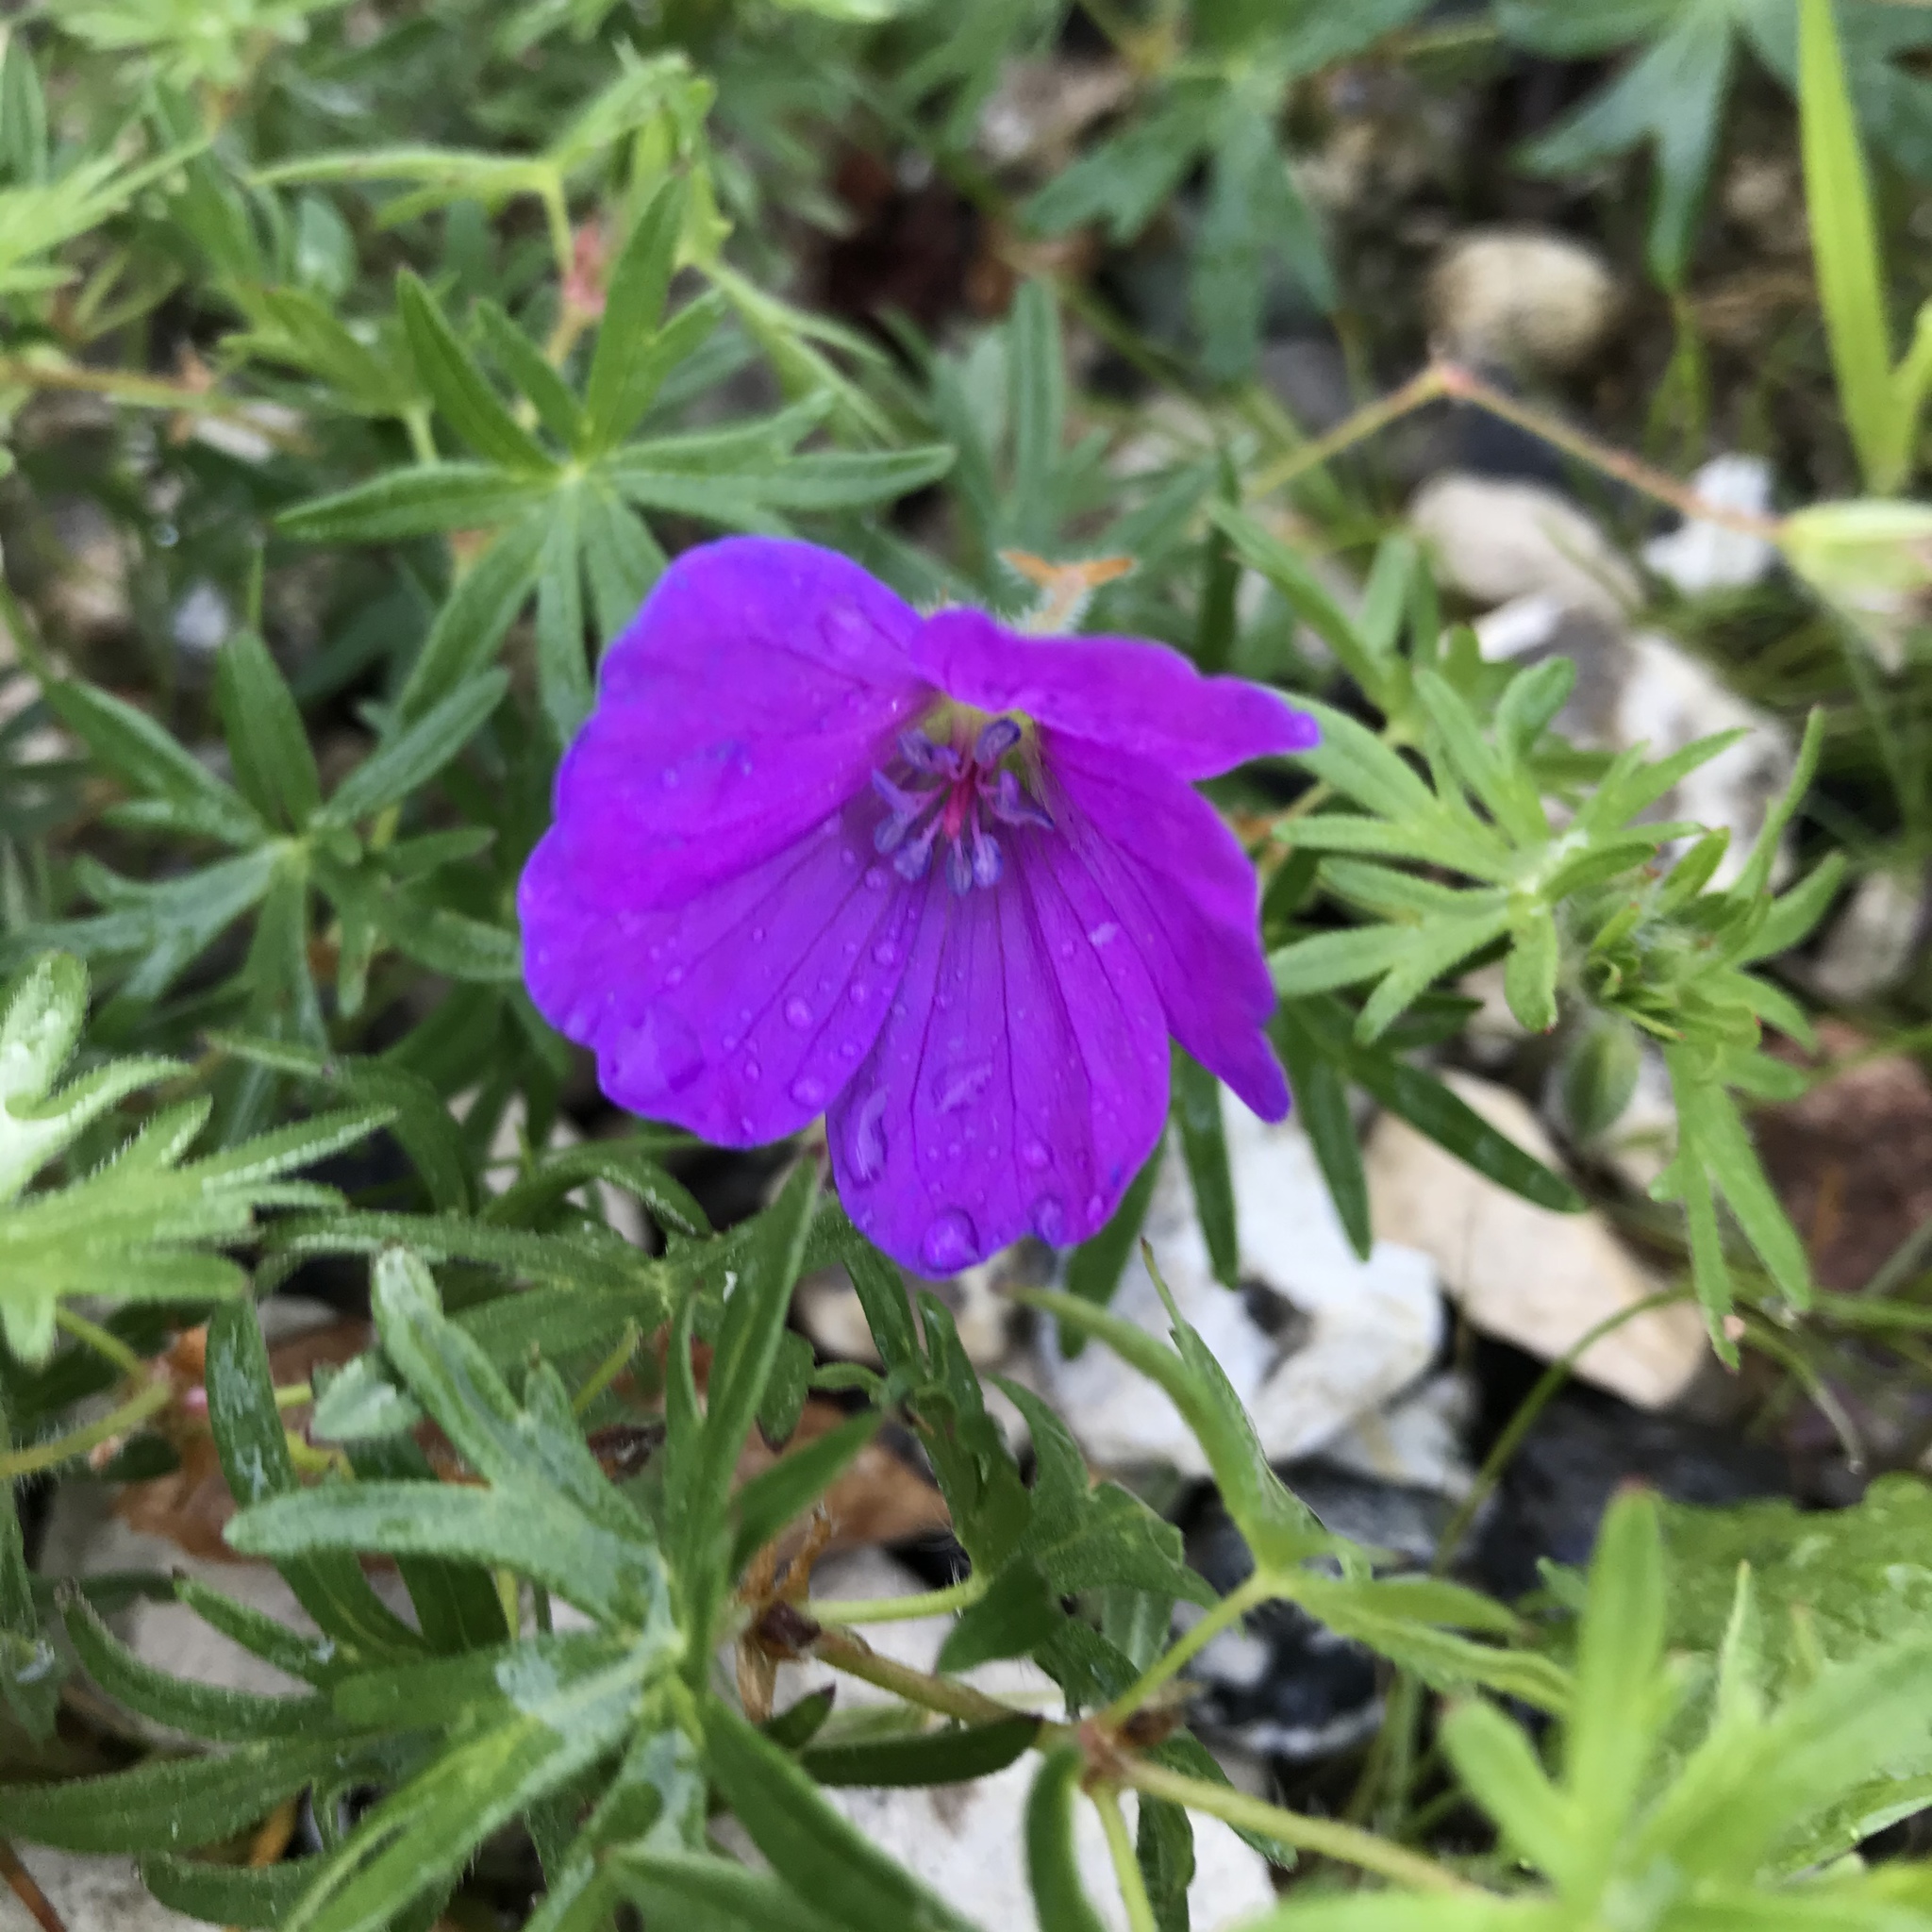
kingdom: Plantae
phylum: Tracheophyta
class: Magnoliopsida
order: Geraniales
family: Geraniaceae
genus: Geranium
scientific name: Geranium sanguineum
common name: Bloody crane's-bill
